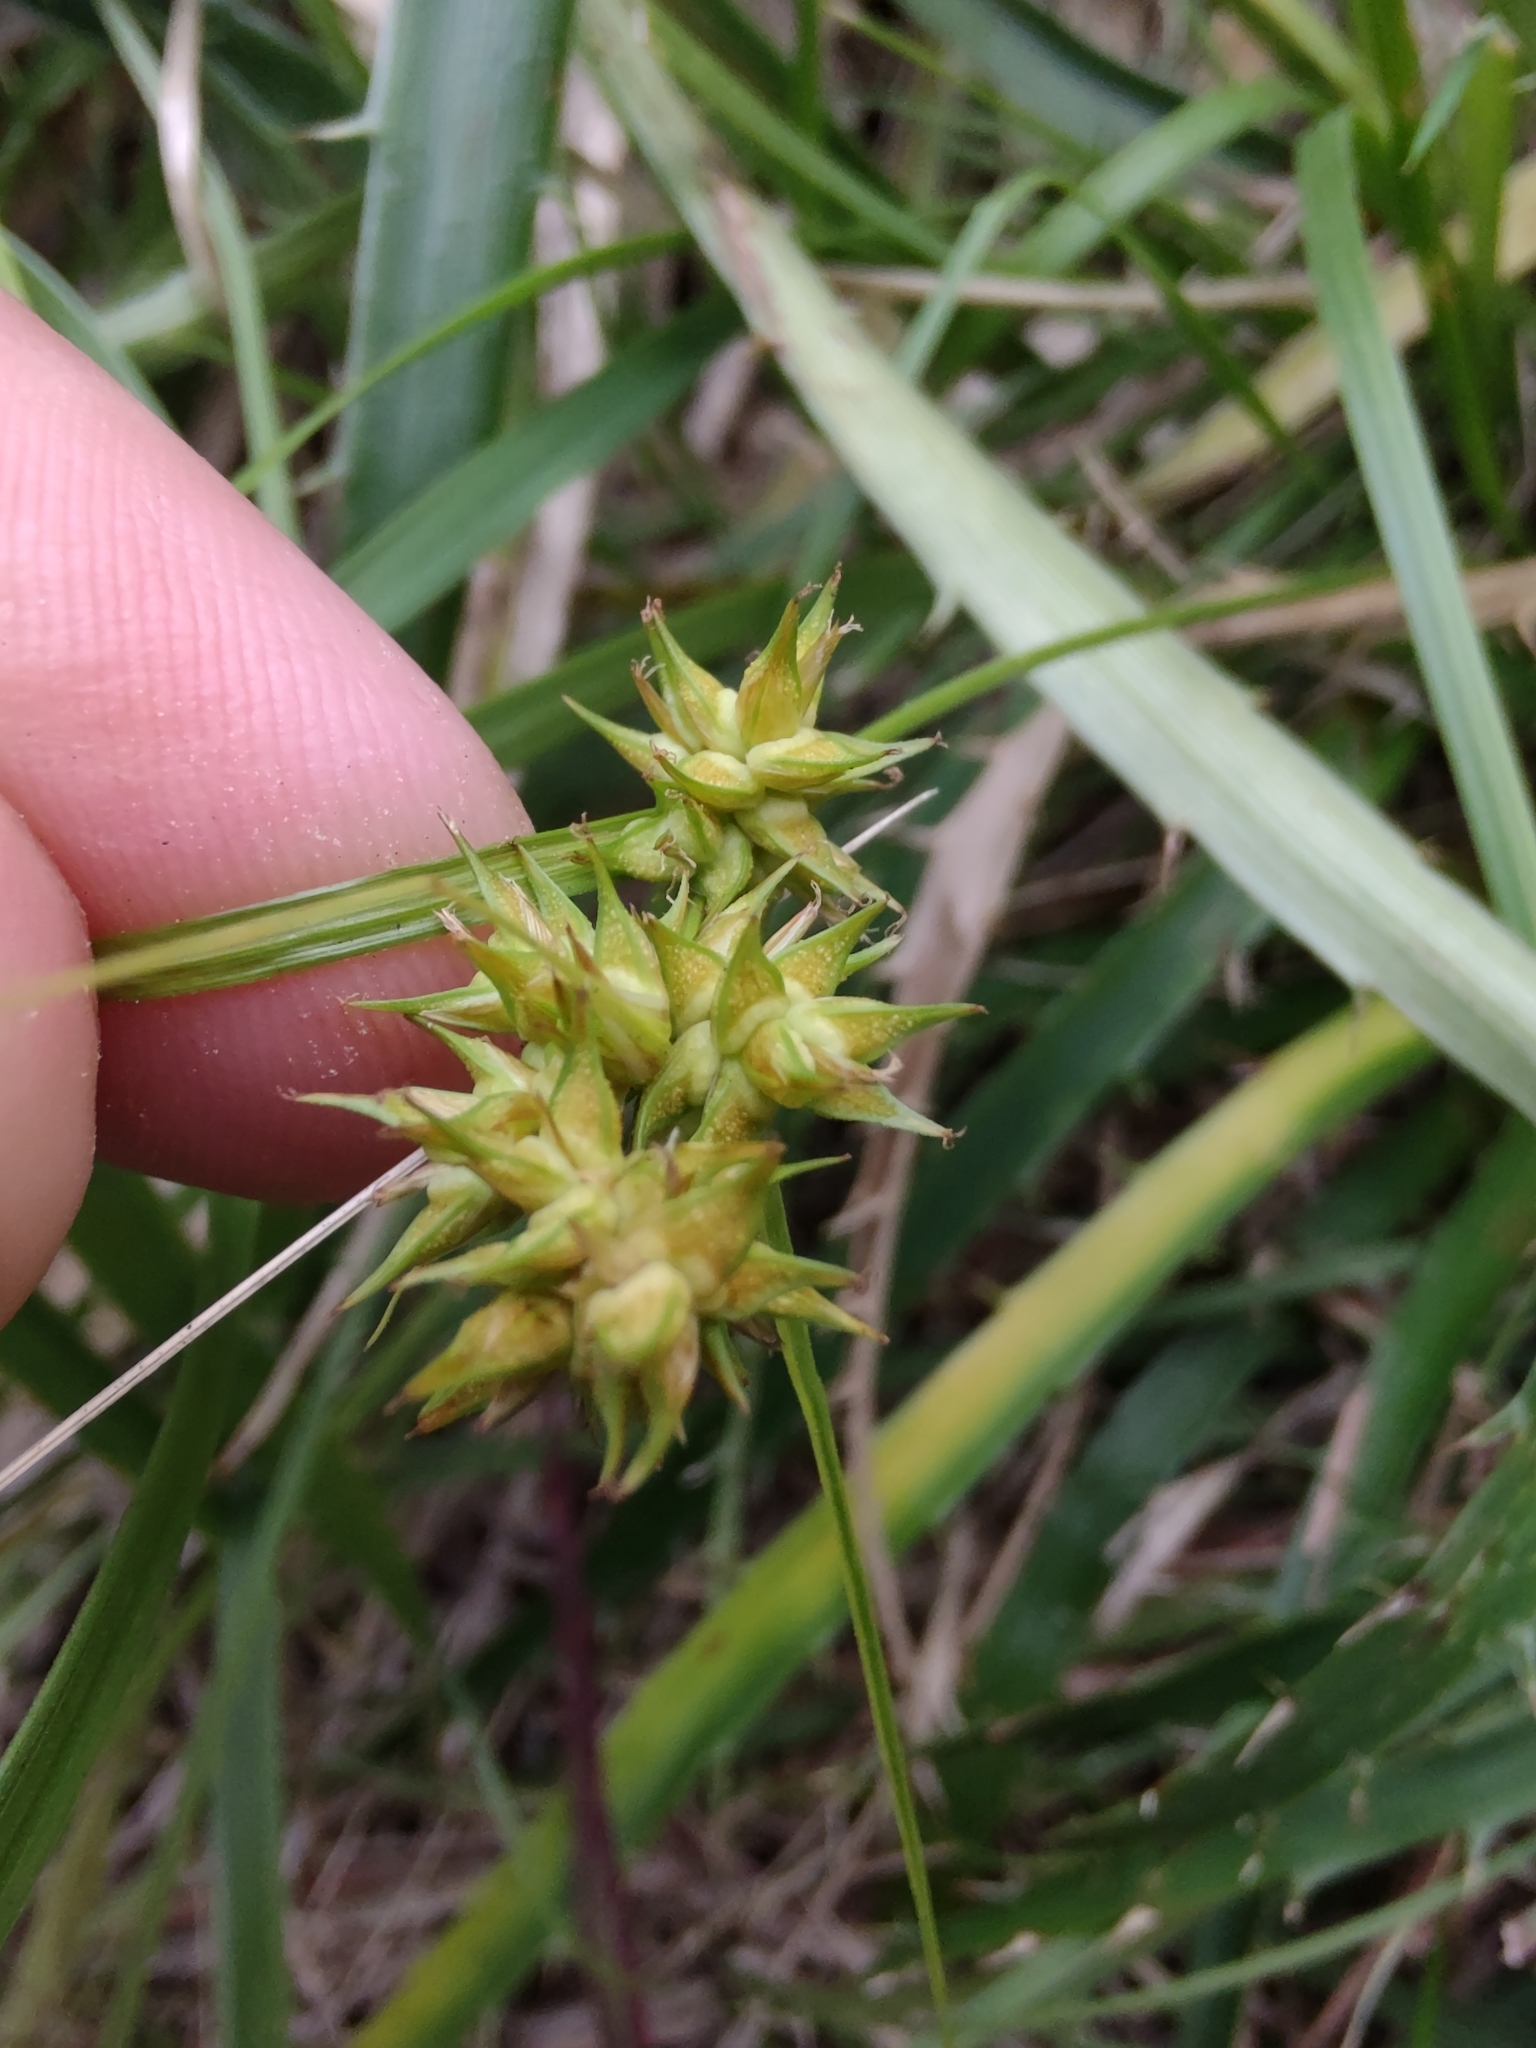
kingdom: Plantae
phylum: Tracheophyta
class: Liliopsida
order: Poales
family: Cyperaceae
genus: Carex
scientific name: Carex bonariensis
